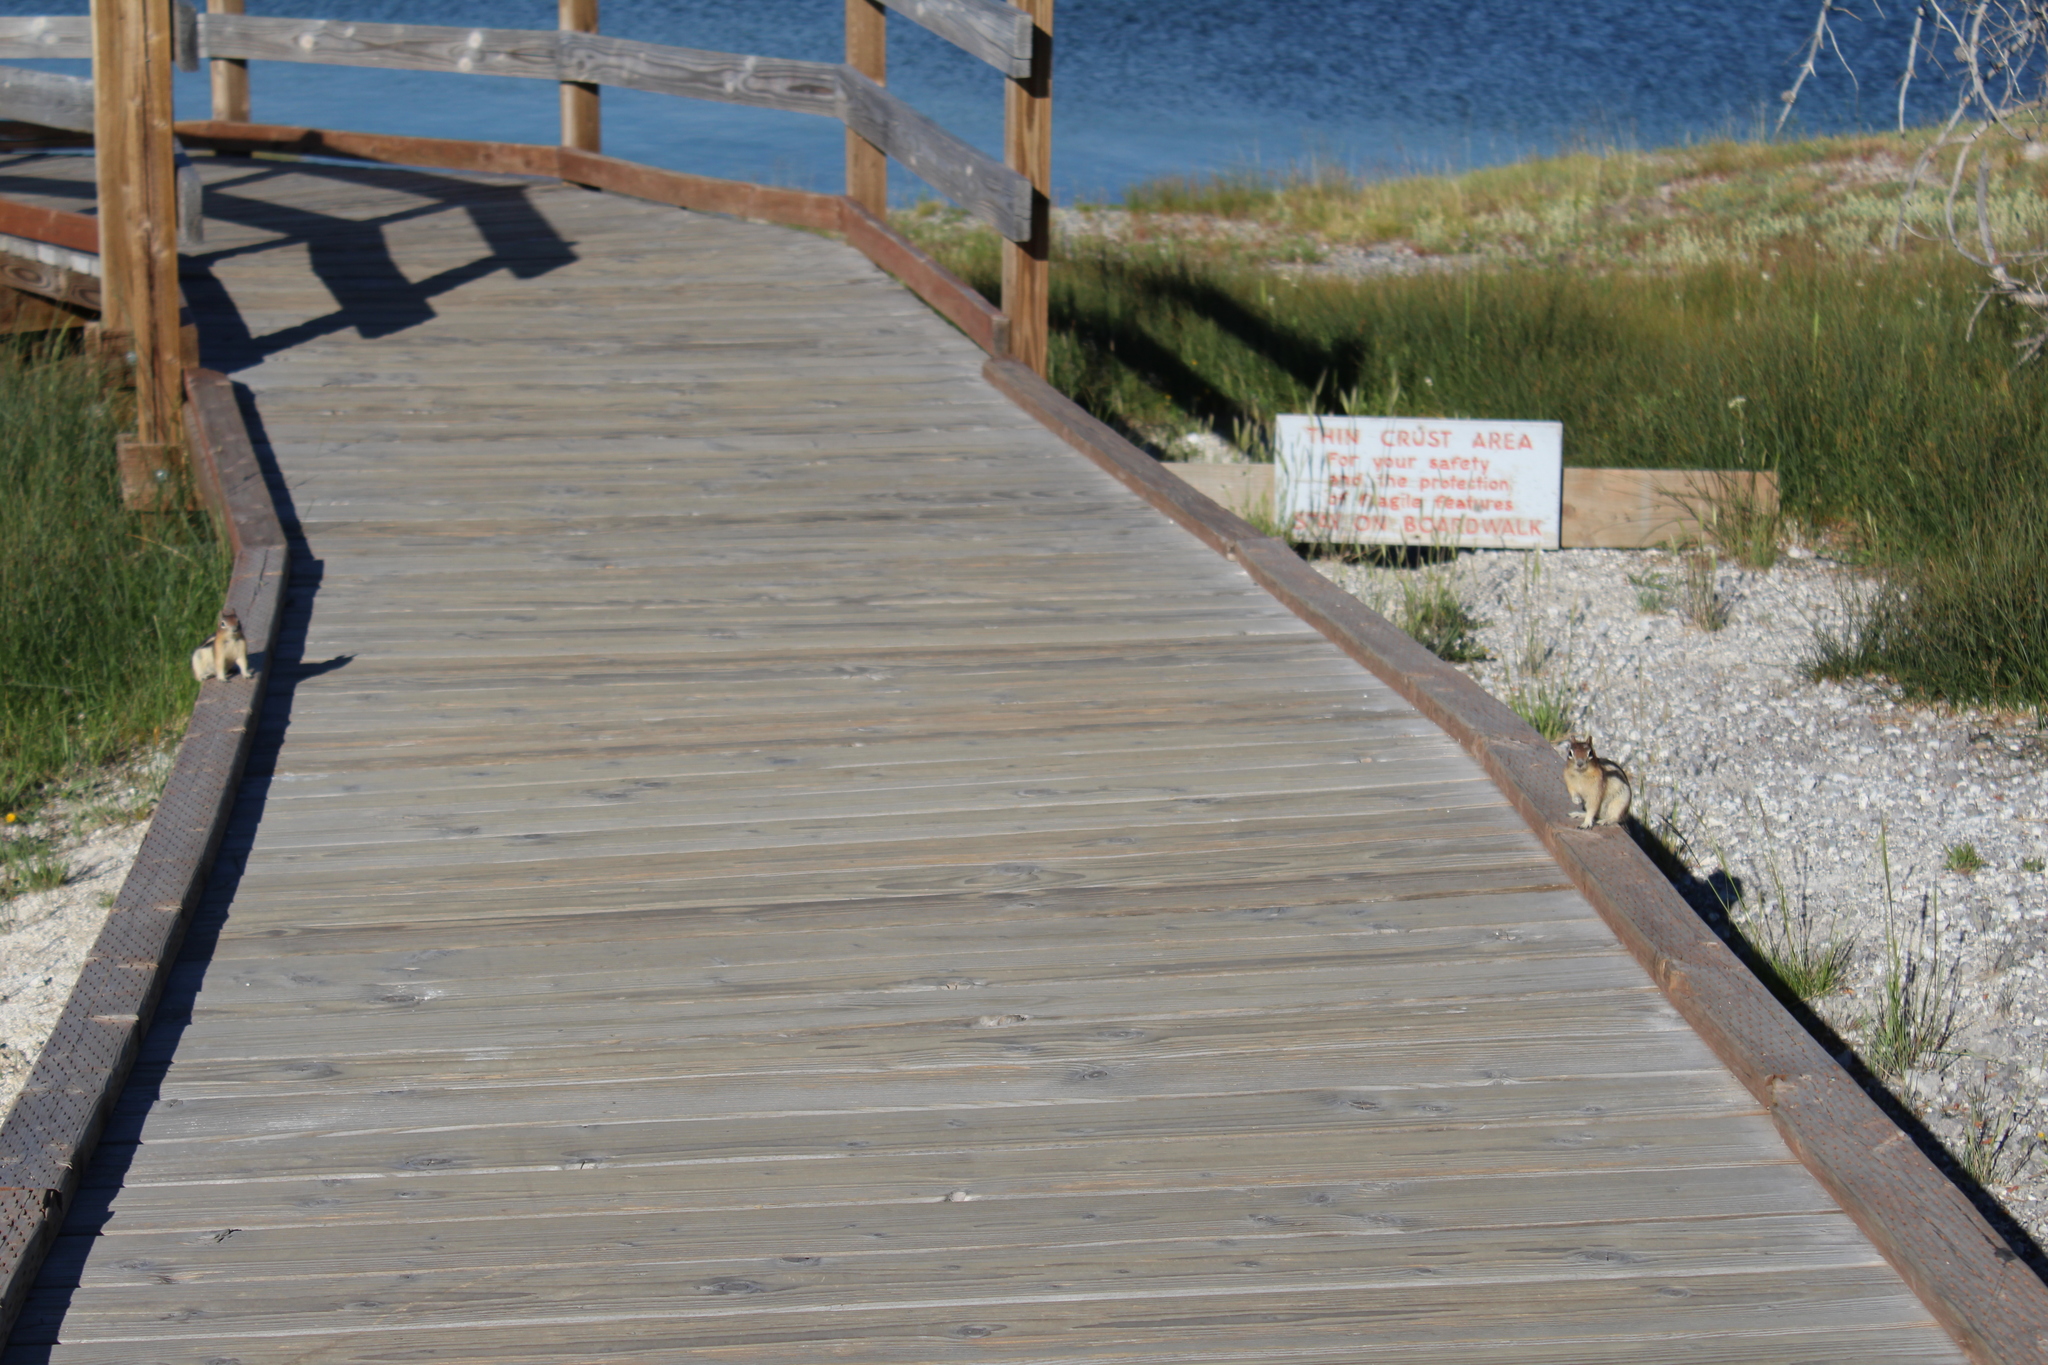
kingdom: Animalia
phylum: Chordata
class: Mammalia
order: Rodentia
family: Sciuridae
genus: Callospermophilus
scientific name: Callospermophilus lateralis
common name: Golden-mantled ground squirrel
